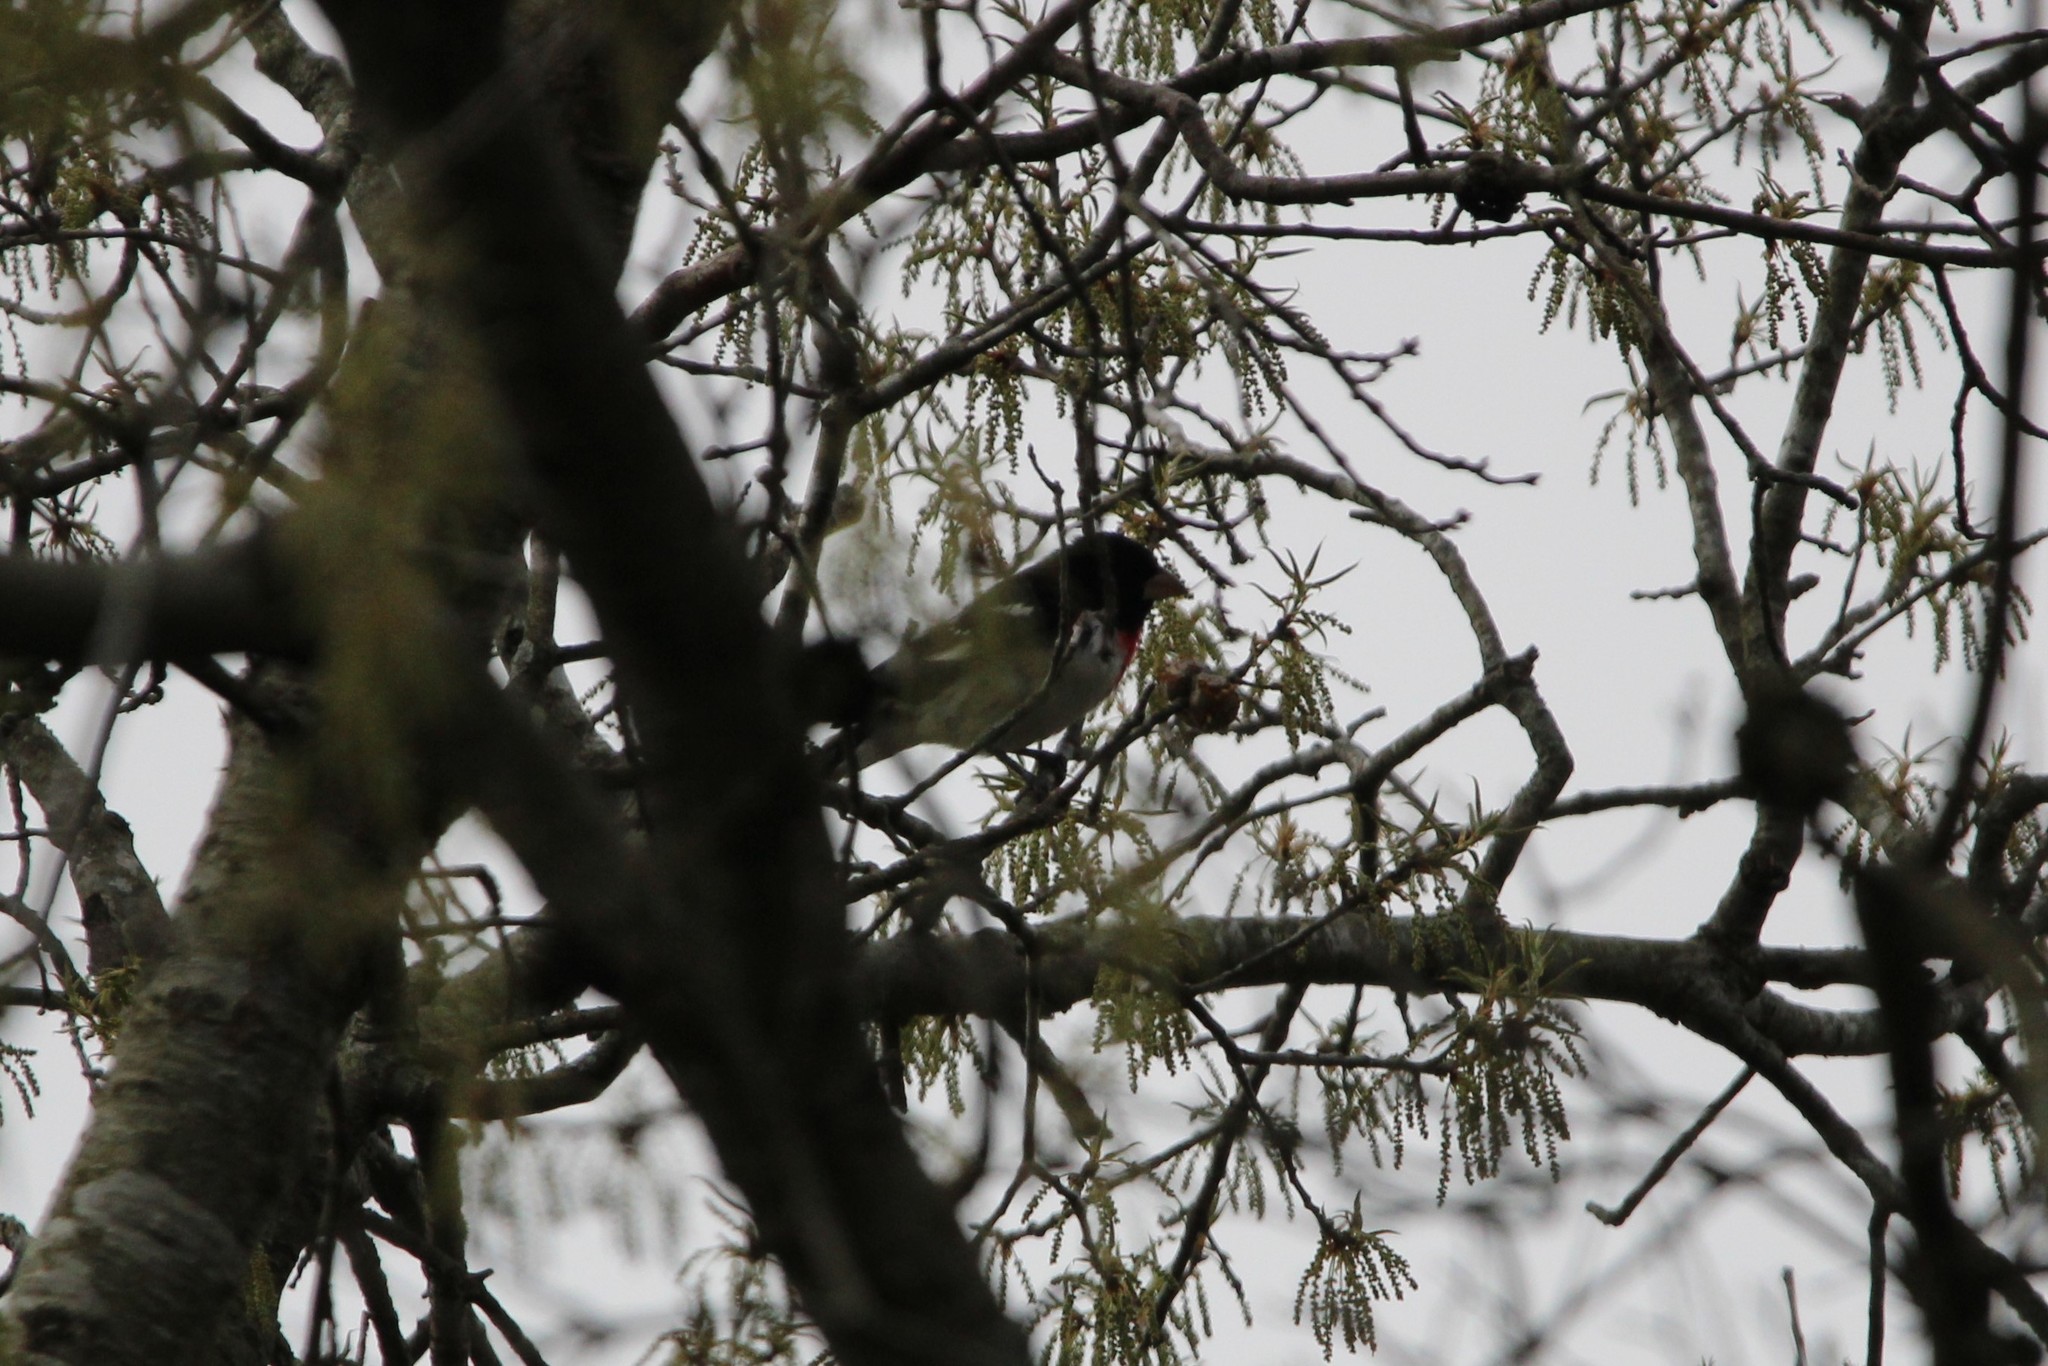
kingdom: Animalia
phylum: Chordata
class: Aves
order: Passeriformes
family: Cardinalidae
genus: Pheucticus
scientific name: Pheucticus ludovicianus
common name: Rose-breasted grosbeak
